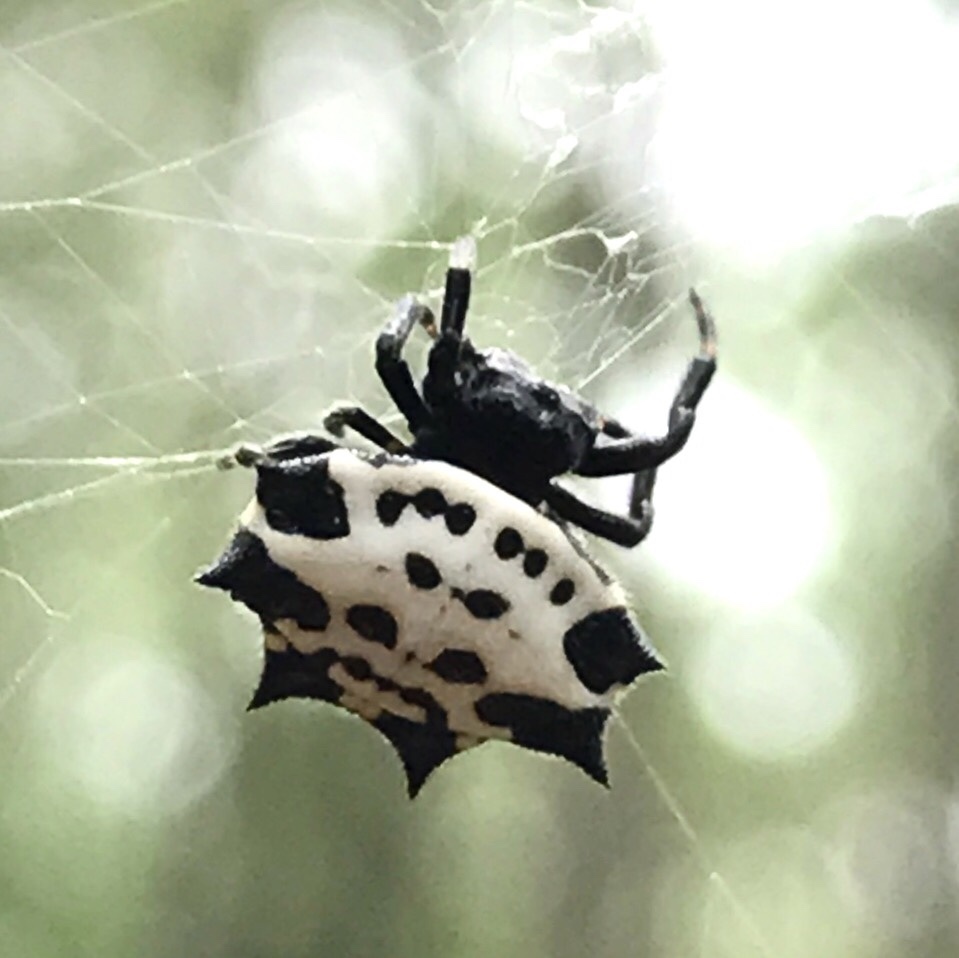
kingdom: Animalia
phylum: Arthropoda
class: Arachnida
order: Araneae
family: Araneidae
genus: Gasteracantha
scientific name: Gasteracantha cancriformis
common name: Orb weavers
